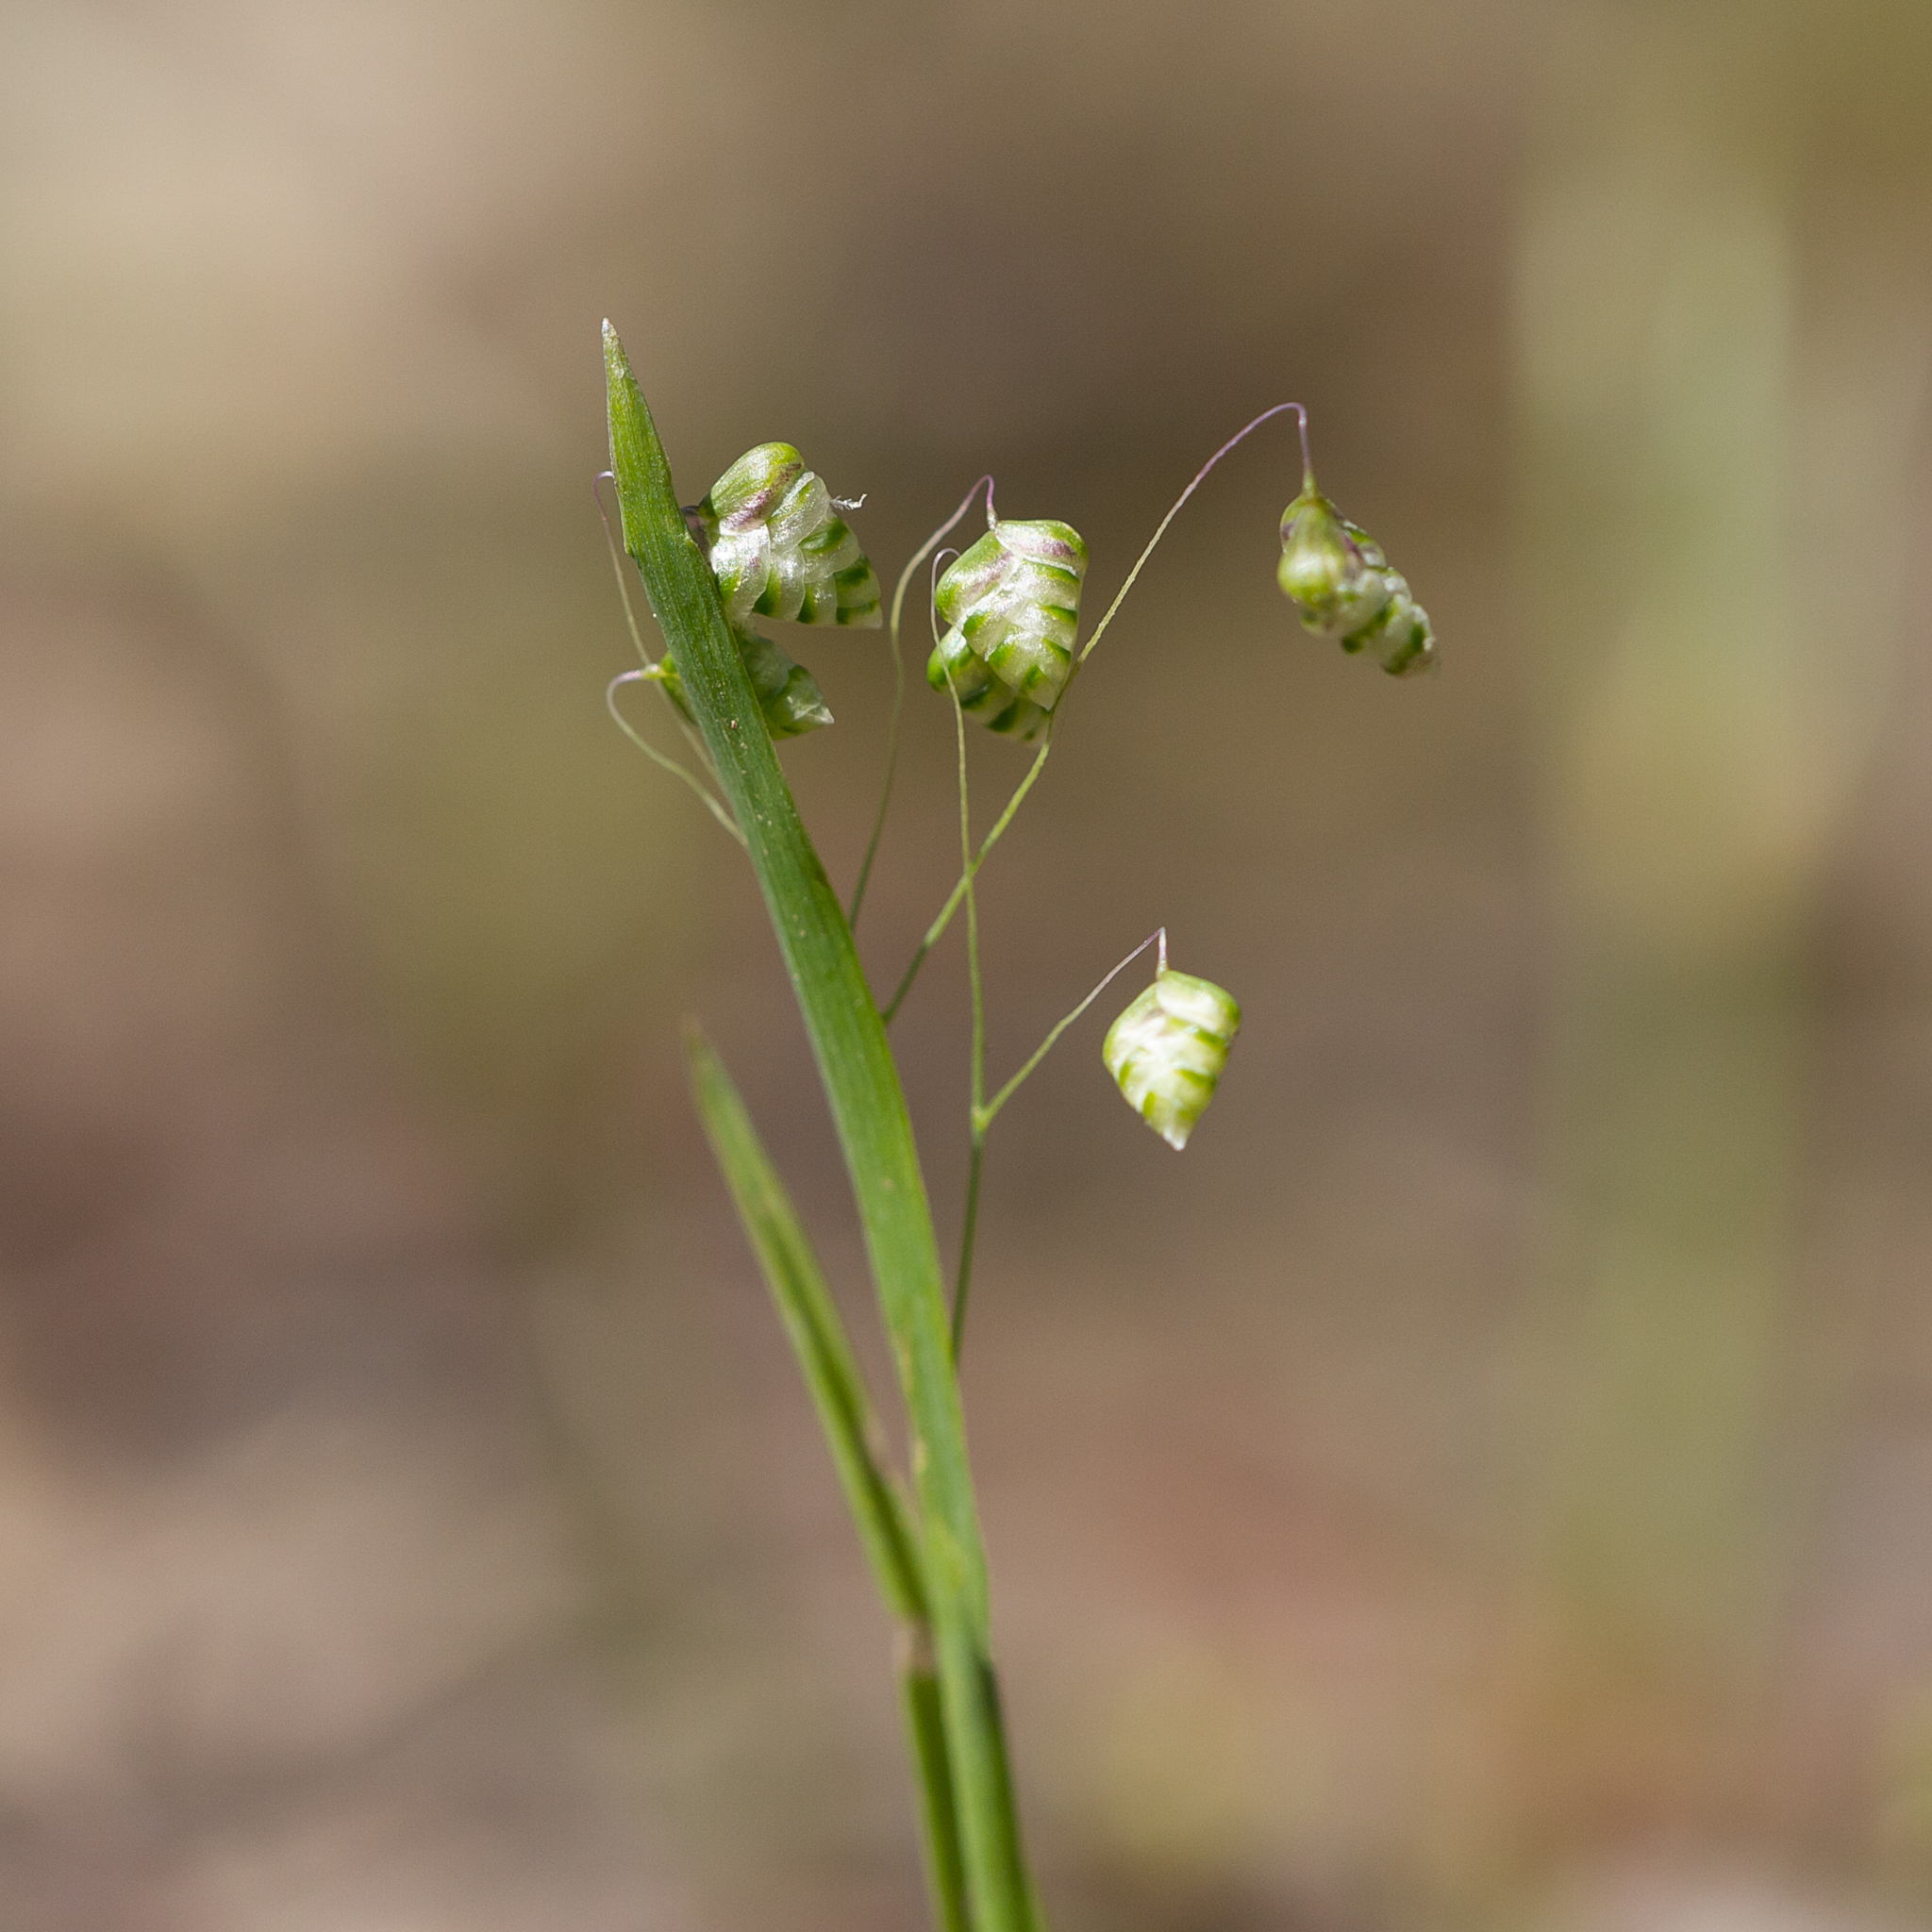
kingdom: Plantae
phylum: Tracheophyta
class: Liliopsida
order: Poales
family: Poaceae
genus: Briza
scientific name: Briza minor
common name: Lesser quaking-grass
